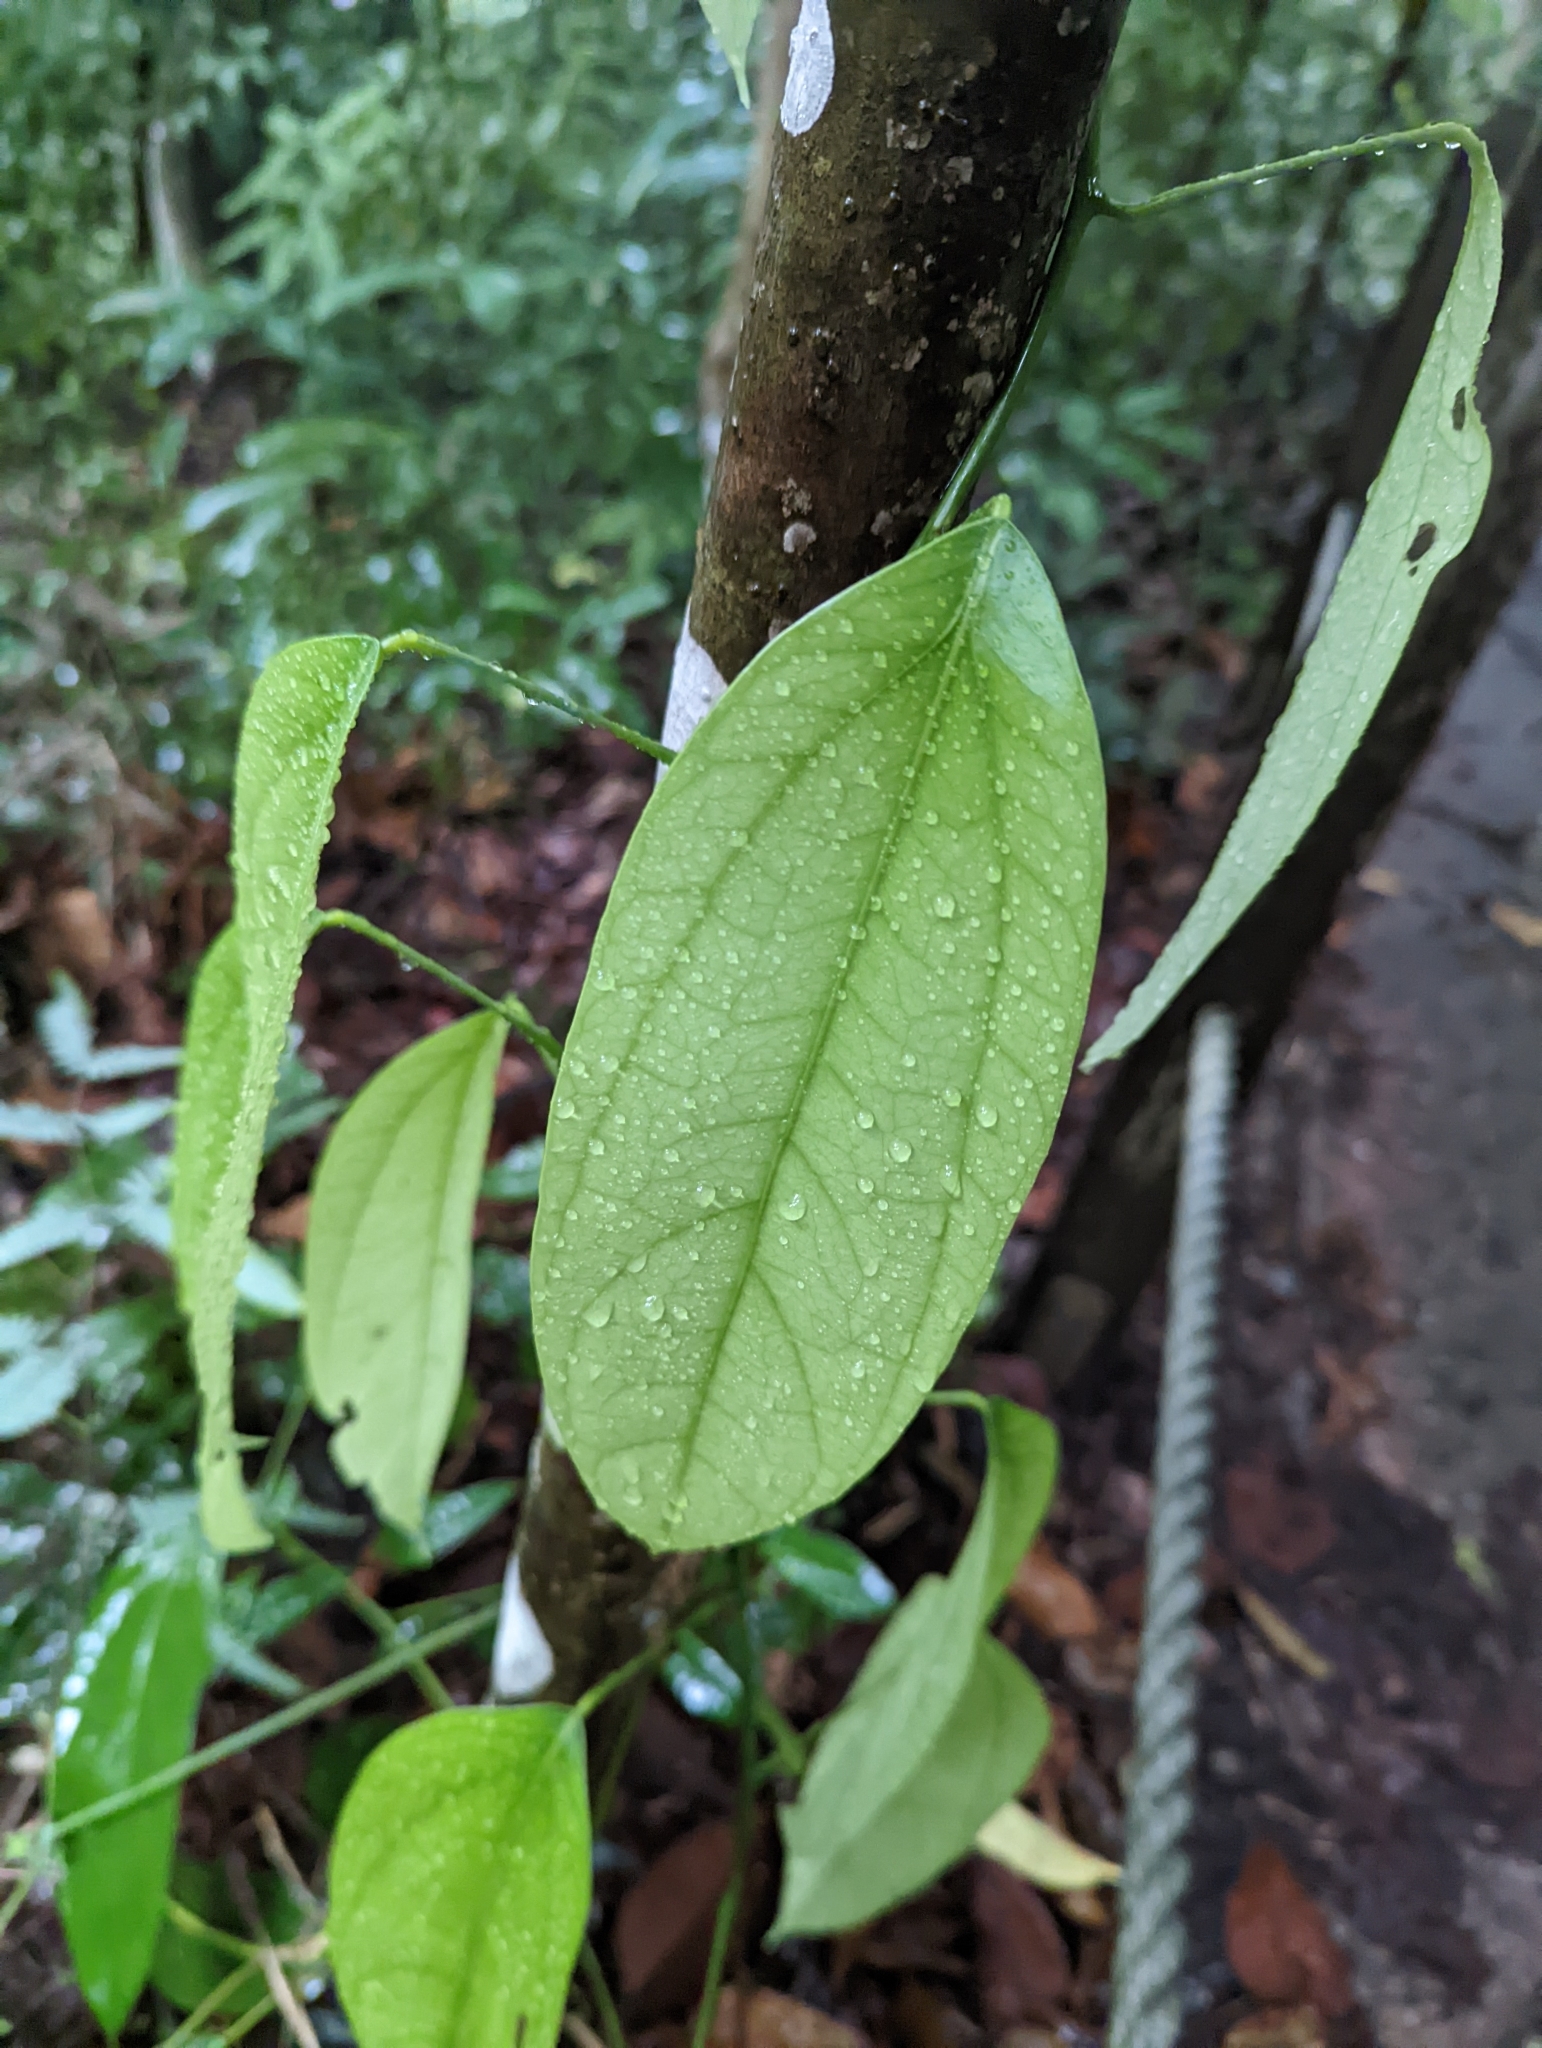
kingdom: Plantae
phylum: Tracheophyta
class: Magnoliopsida
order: Ranunculales
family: Menispermaceae
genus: Fibraurea
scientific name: Fibraurea tinctoria
